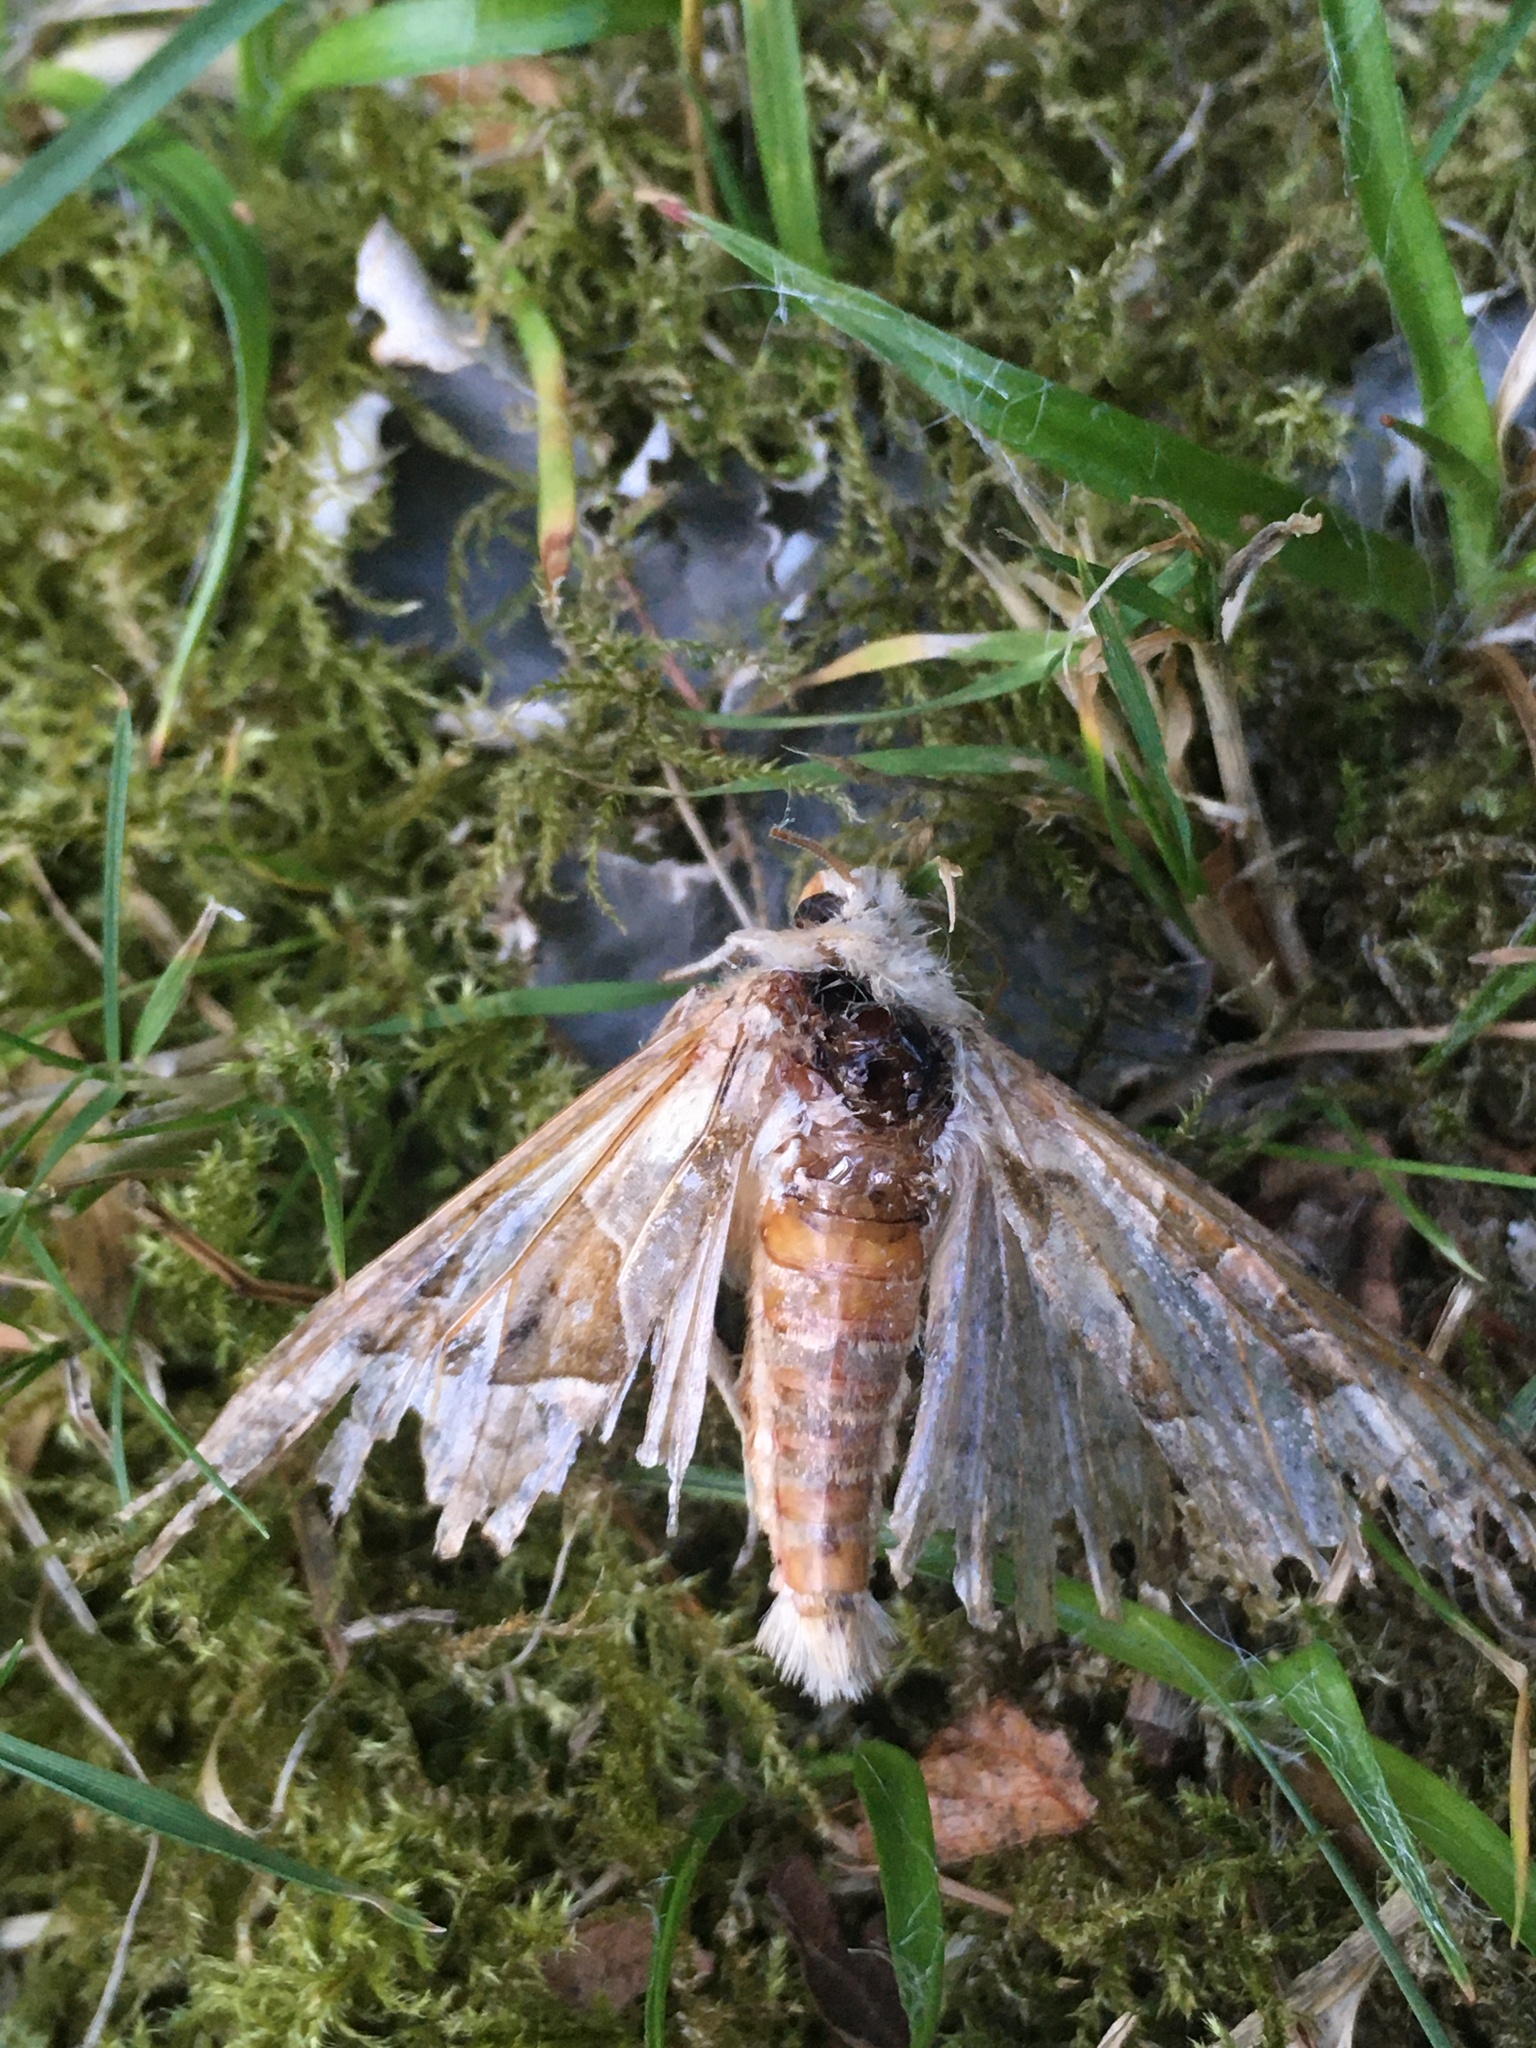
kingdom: Animalia
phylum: Arthropoda
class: Insecta
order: Lepidoptera
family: Noctuidae
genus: Phlogophora
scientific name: Phlogophora meticulosa
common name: Angle shades
